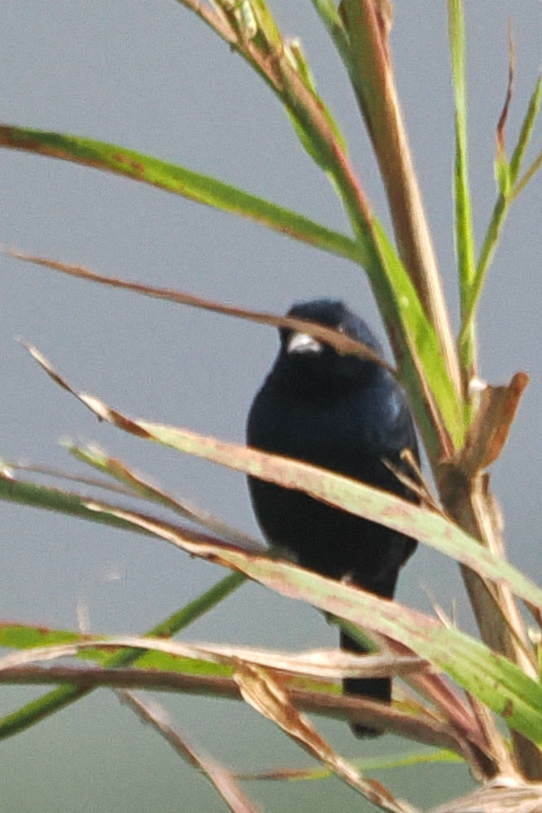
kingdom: Animalia
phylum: Chordata
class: Aves
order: Passeriformes
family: Thraupidae
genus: Volatinia
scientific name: Volatinia jacarina
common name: Blue-black grassquit
